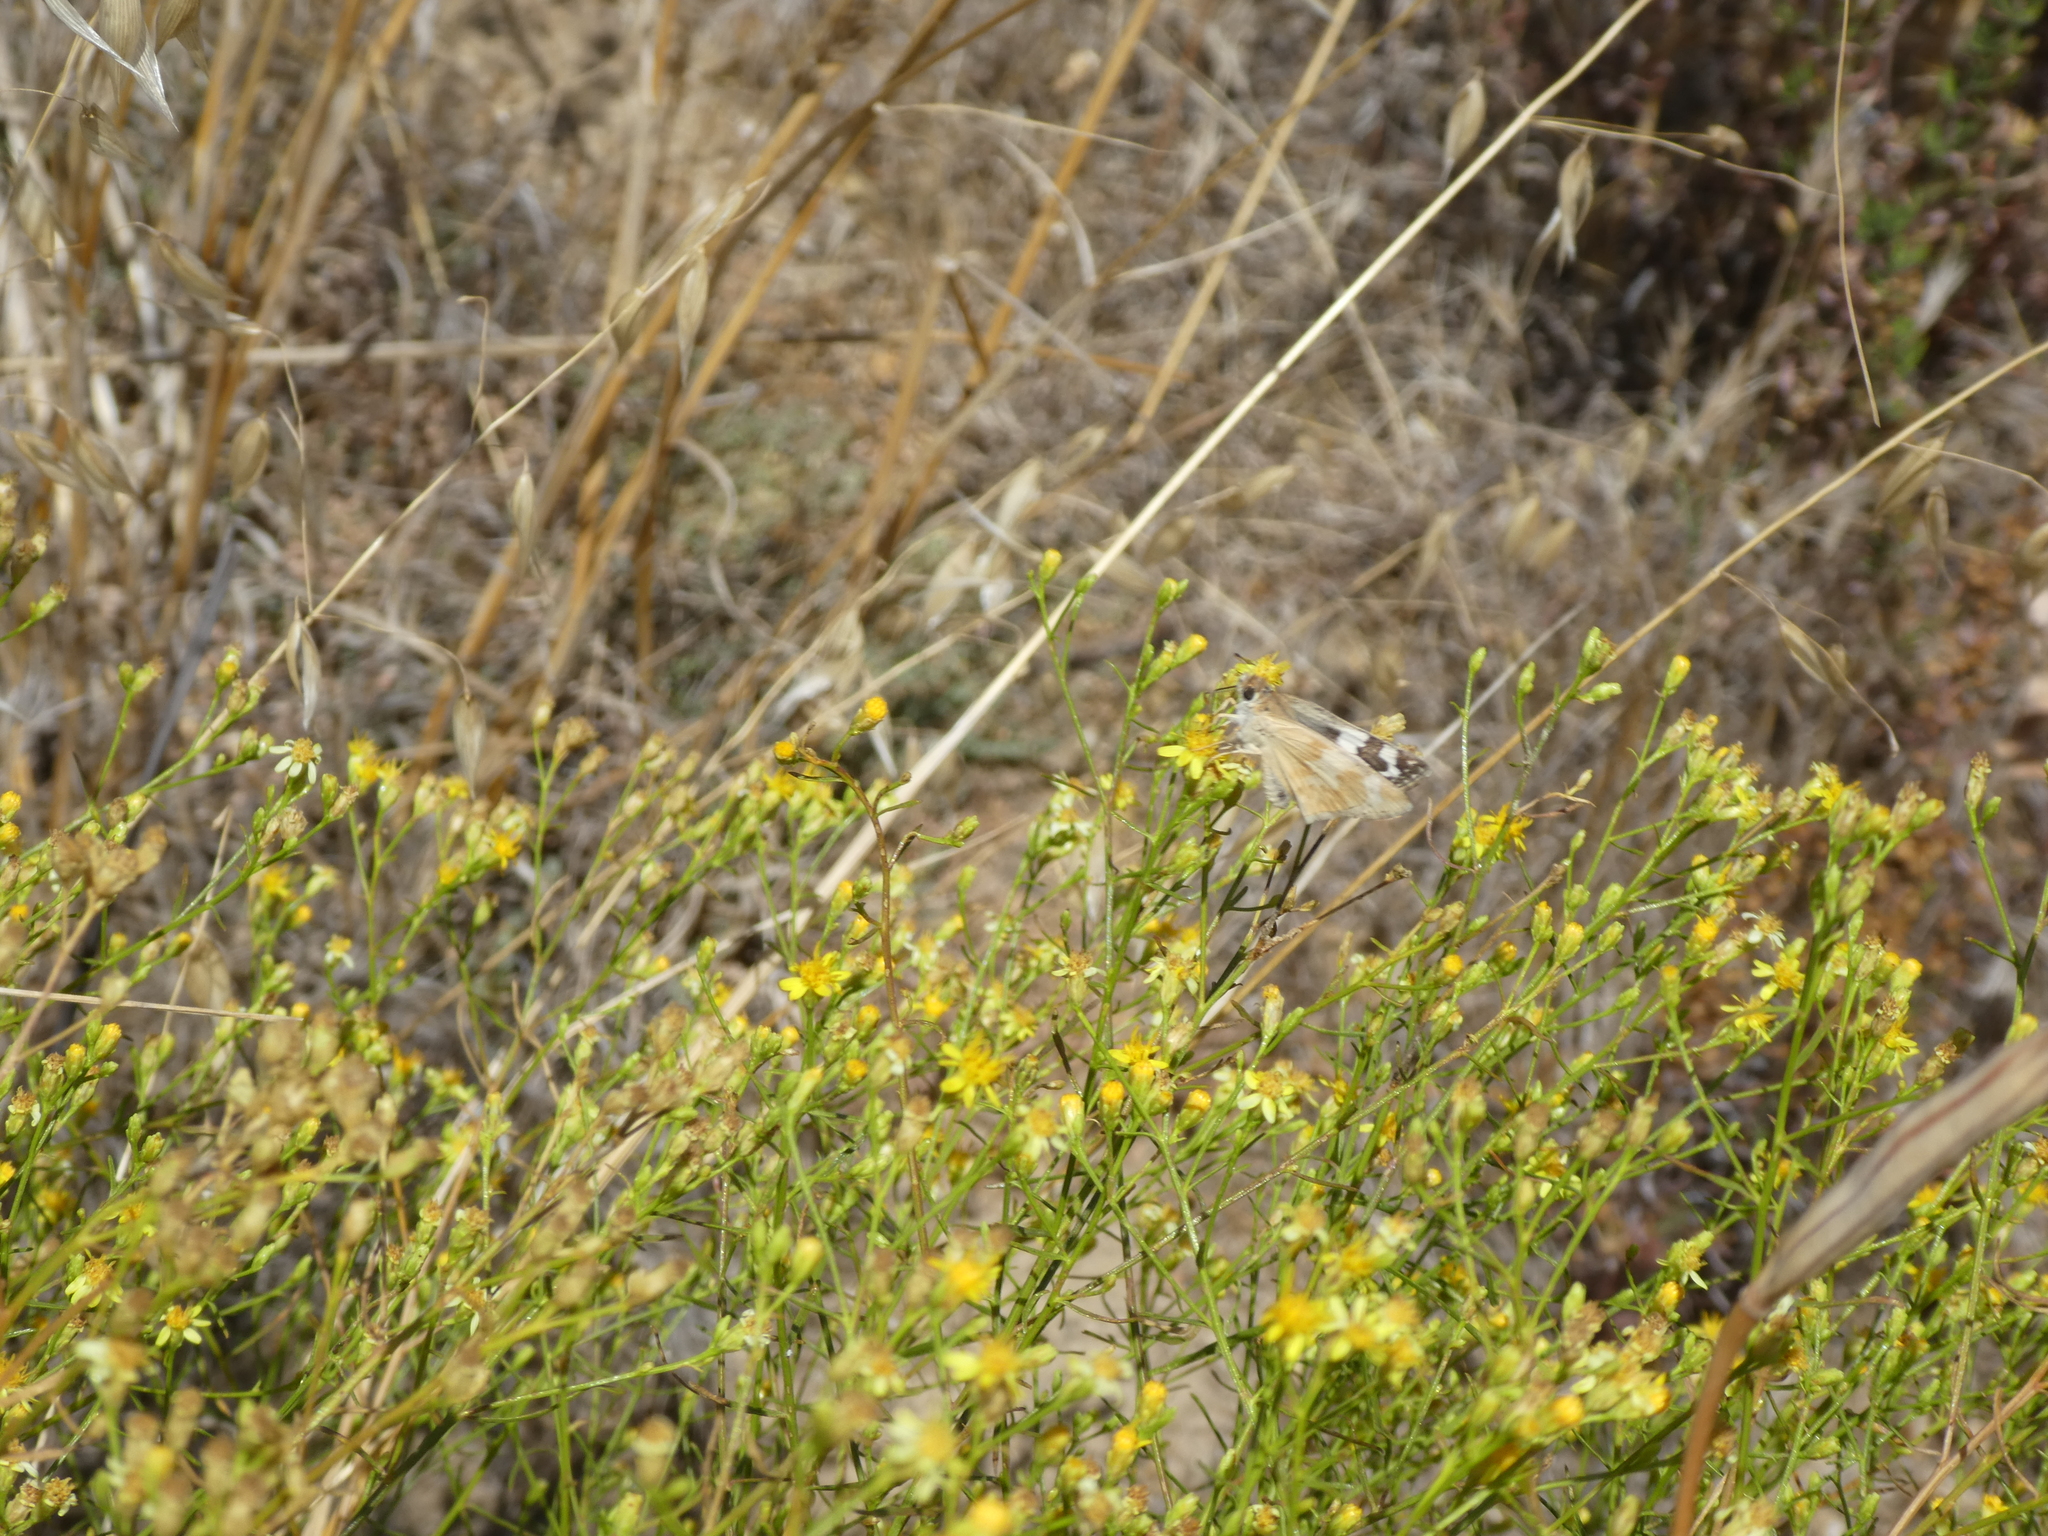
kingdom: Animalia
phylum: Arthropoda
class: Insecta
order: Lepidoptera
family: Hesperiidae
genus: Heliopetes
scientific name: Heliopetes ericetorum
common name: Northern white-skipper
